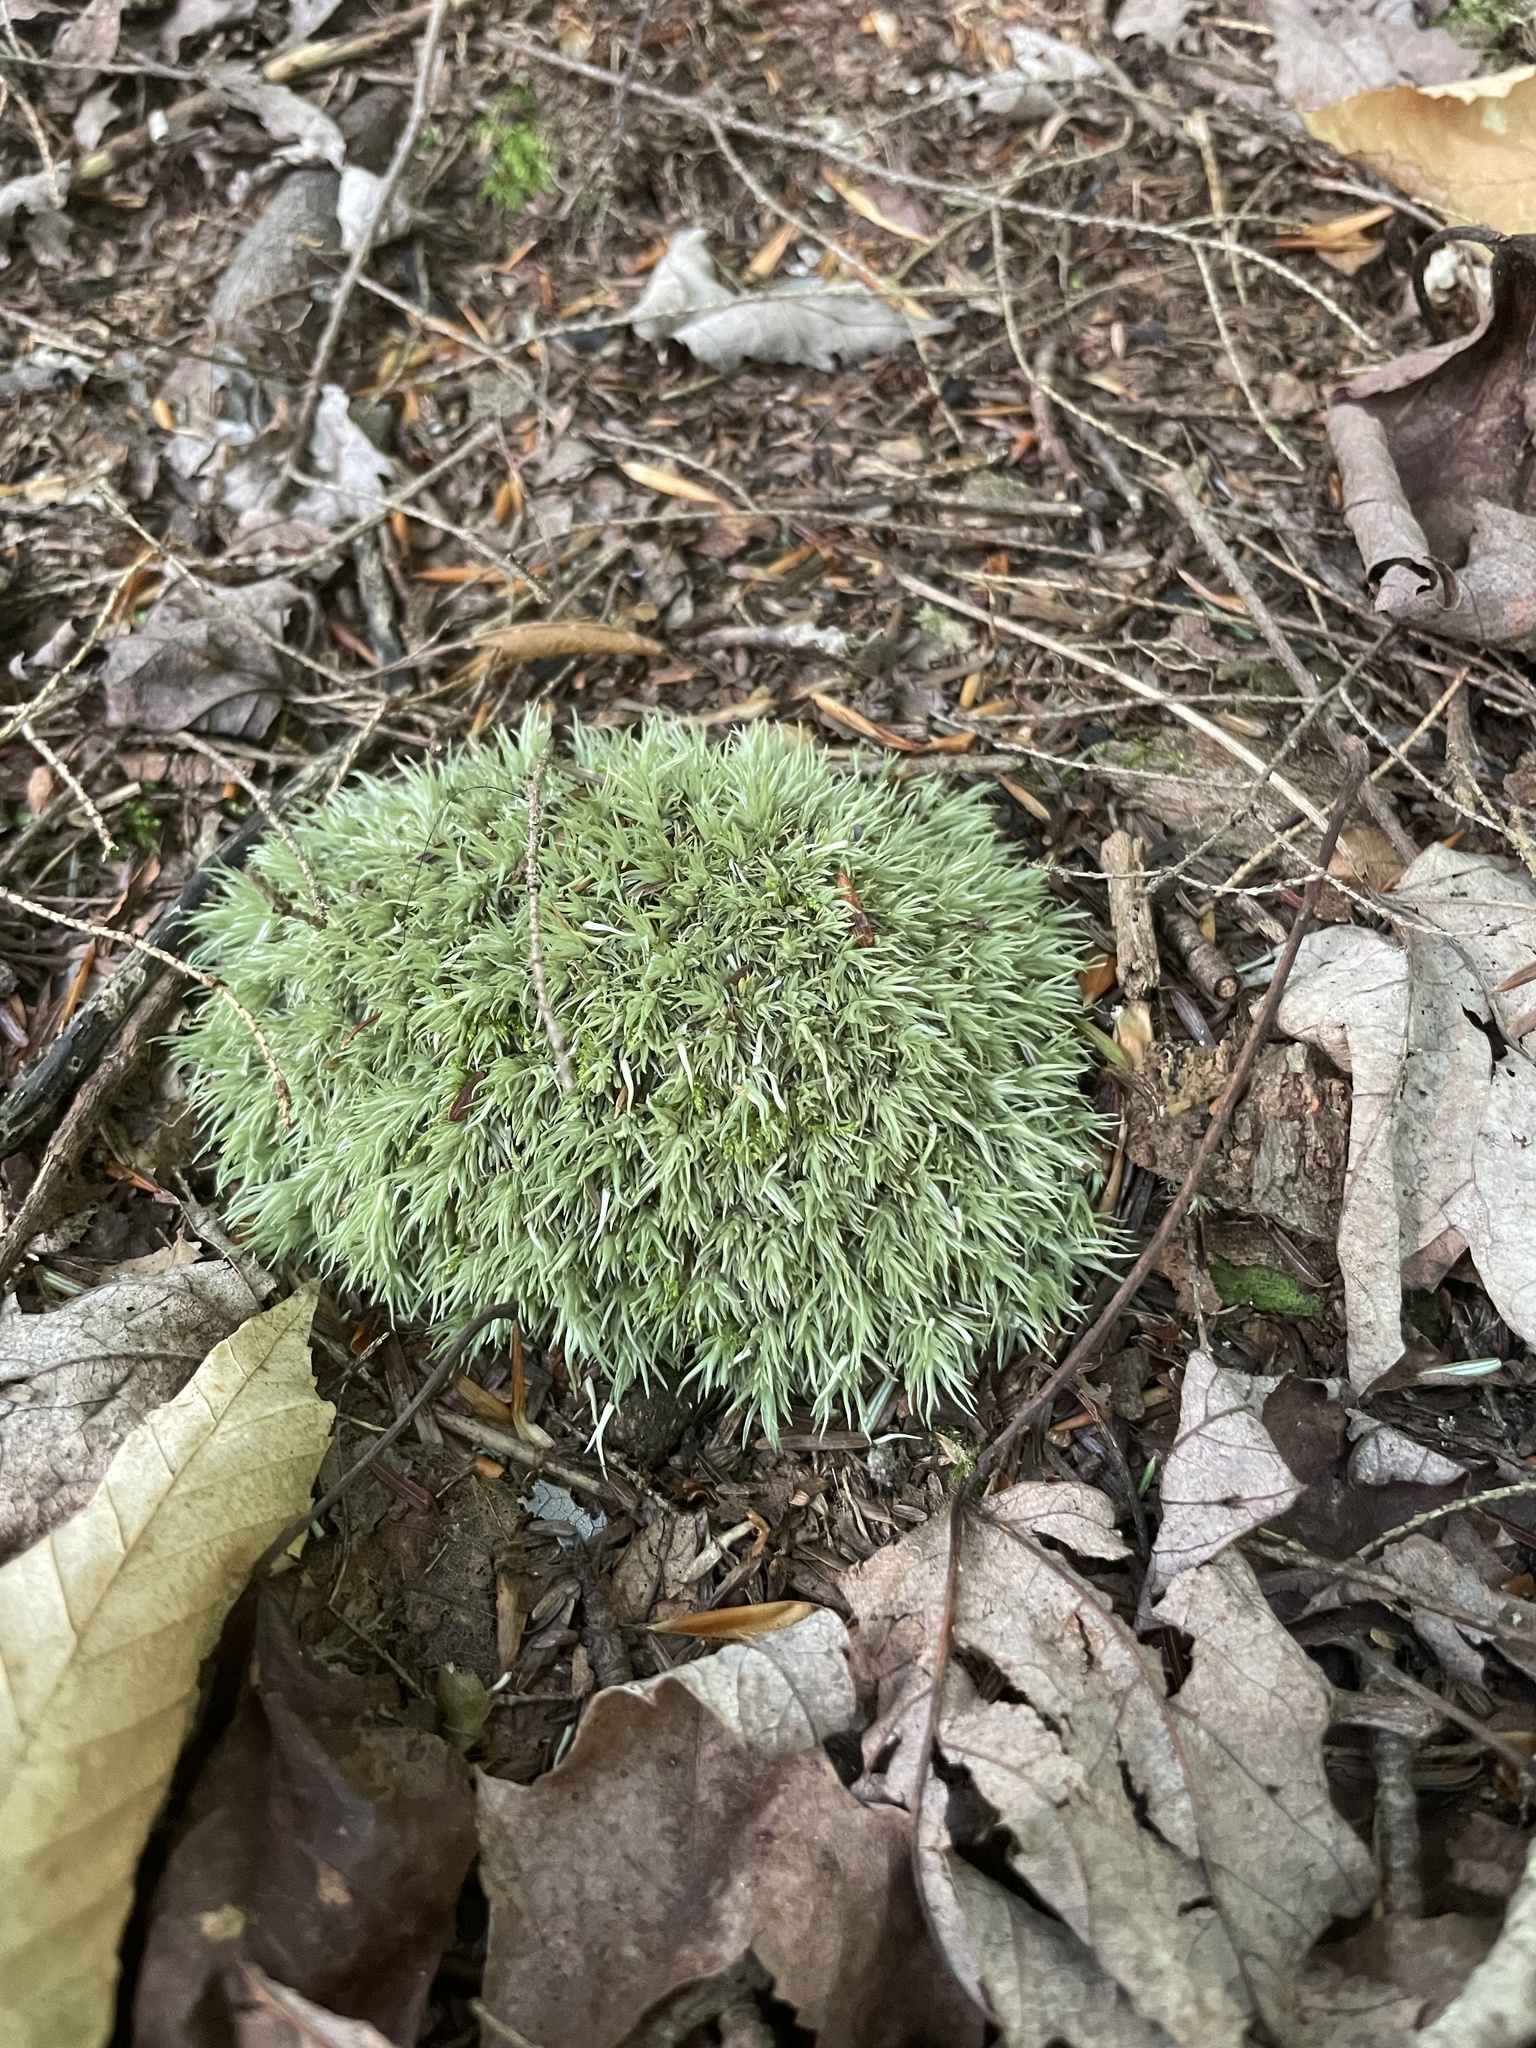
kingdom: Plantae
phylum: Bryophyta
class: Bryopsida
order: Dicranales
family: Leucobryaceae
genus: Leucobryum
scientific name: Leucobryum glaucum
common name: Large white-moss
